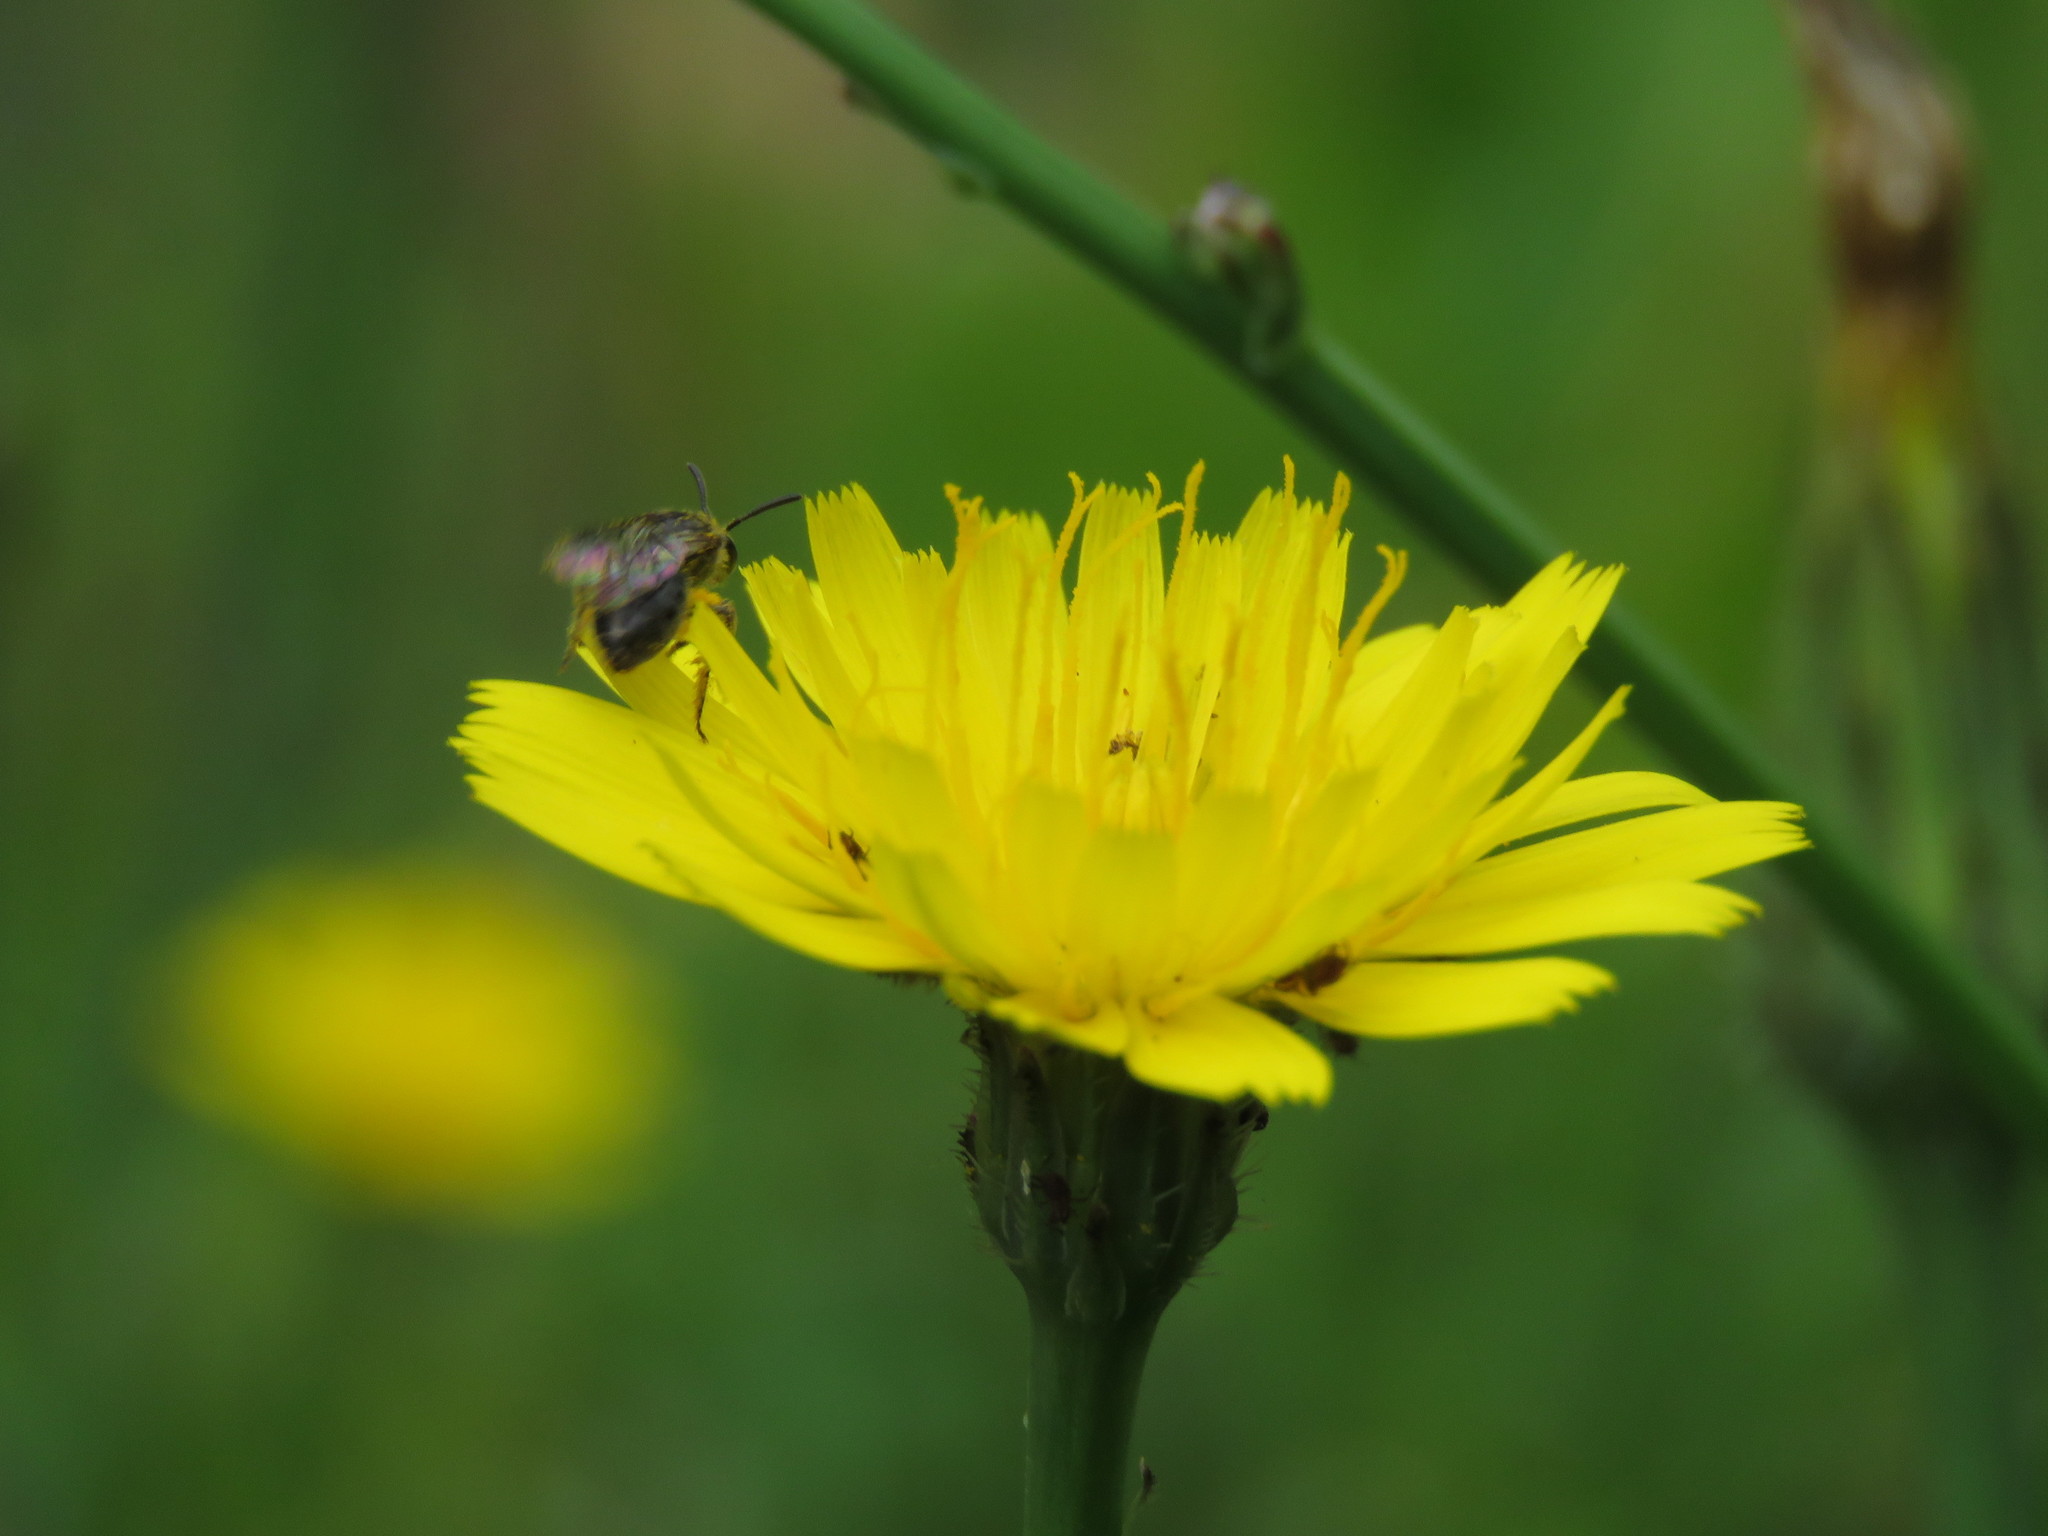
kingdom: Plantae
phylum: Tracheophyta
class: Magnoliopsida
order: Asterales
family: Asteraceae
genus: Hypochaeris
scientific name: Hypochaeris radicata
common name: Flatweed
